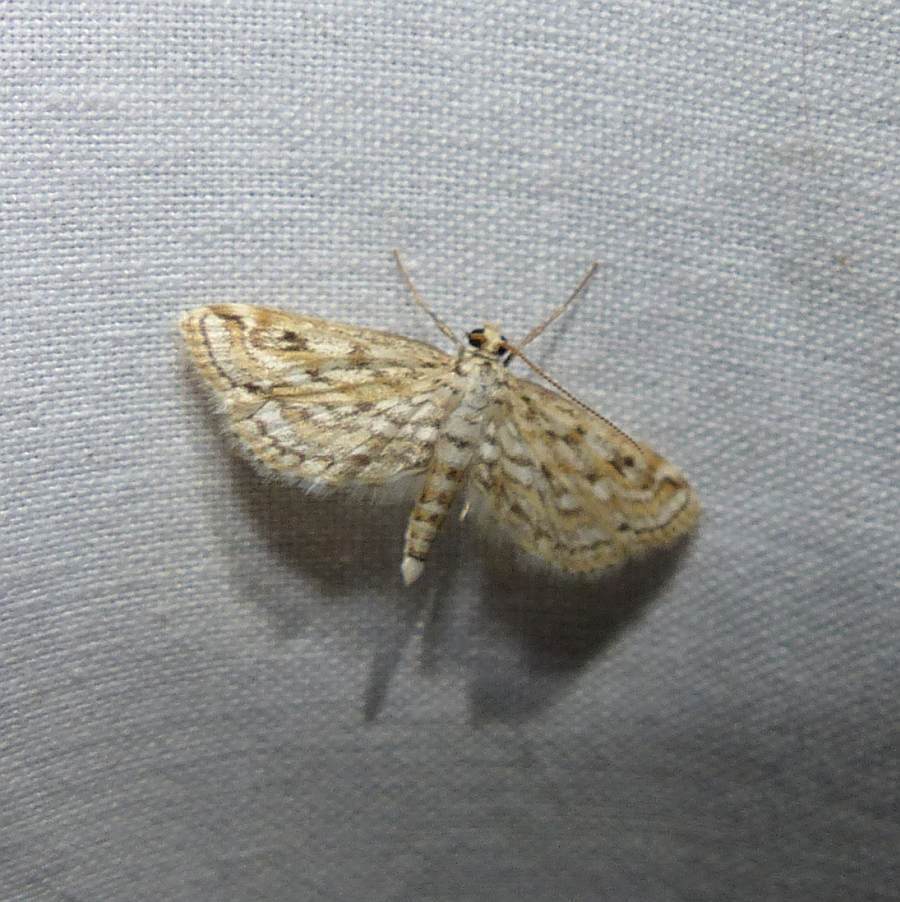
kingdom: Animalia
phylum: Arthropoda
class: Insecta
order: Lepidoptera
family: Crambidae
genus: Parapoynx
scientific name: Parapoynx allionealis
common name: Bladderwort casemaker
